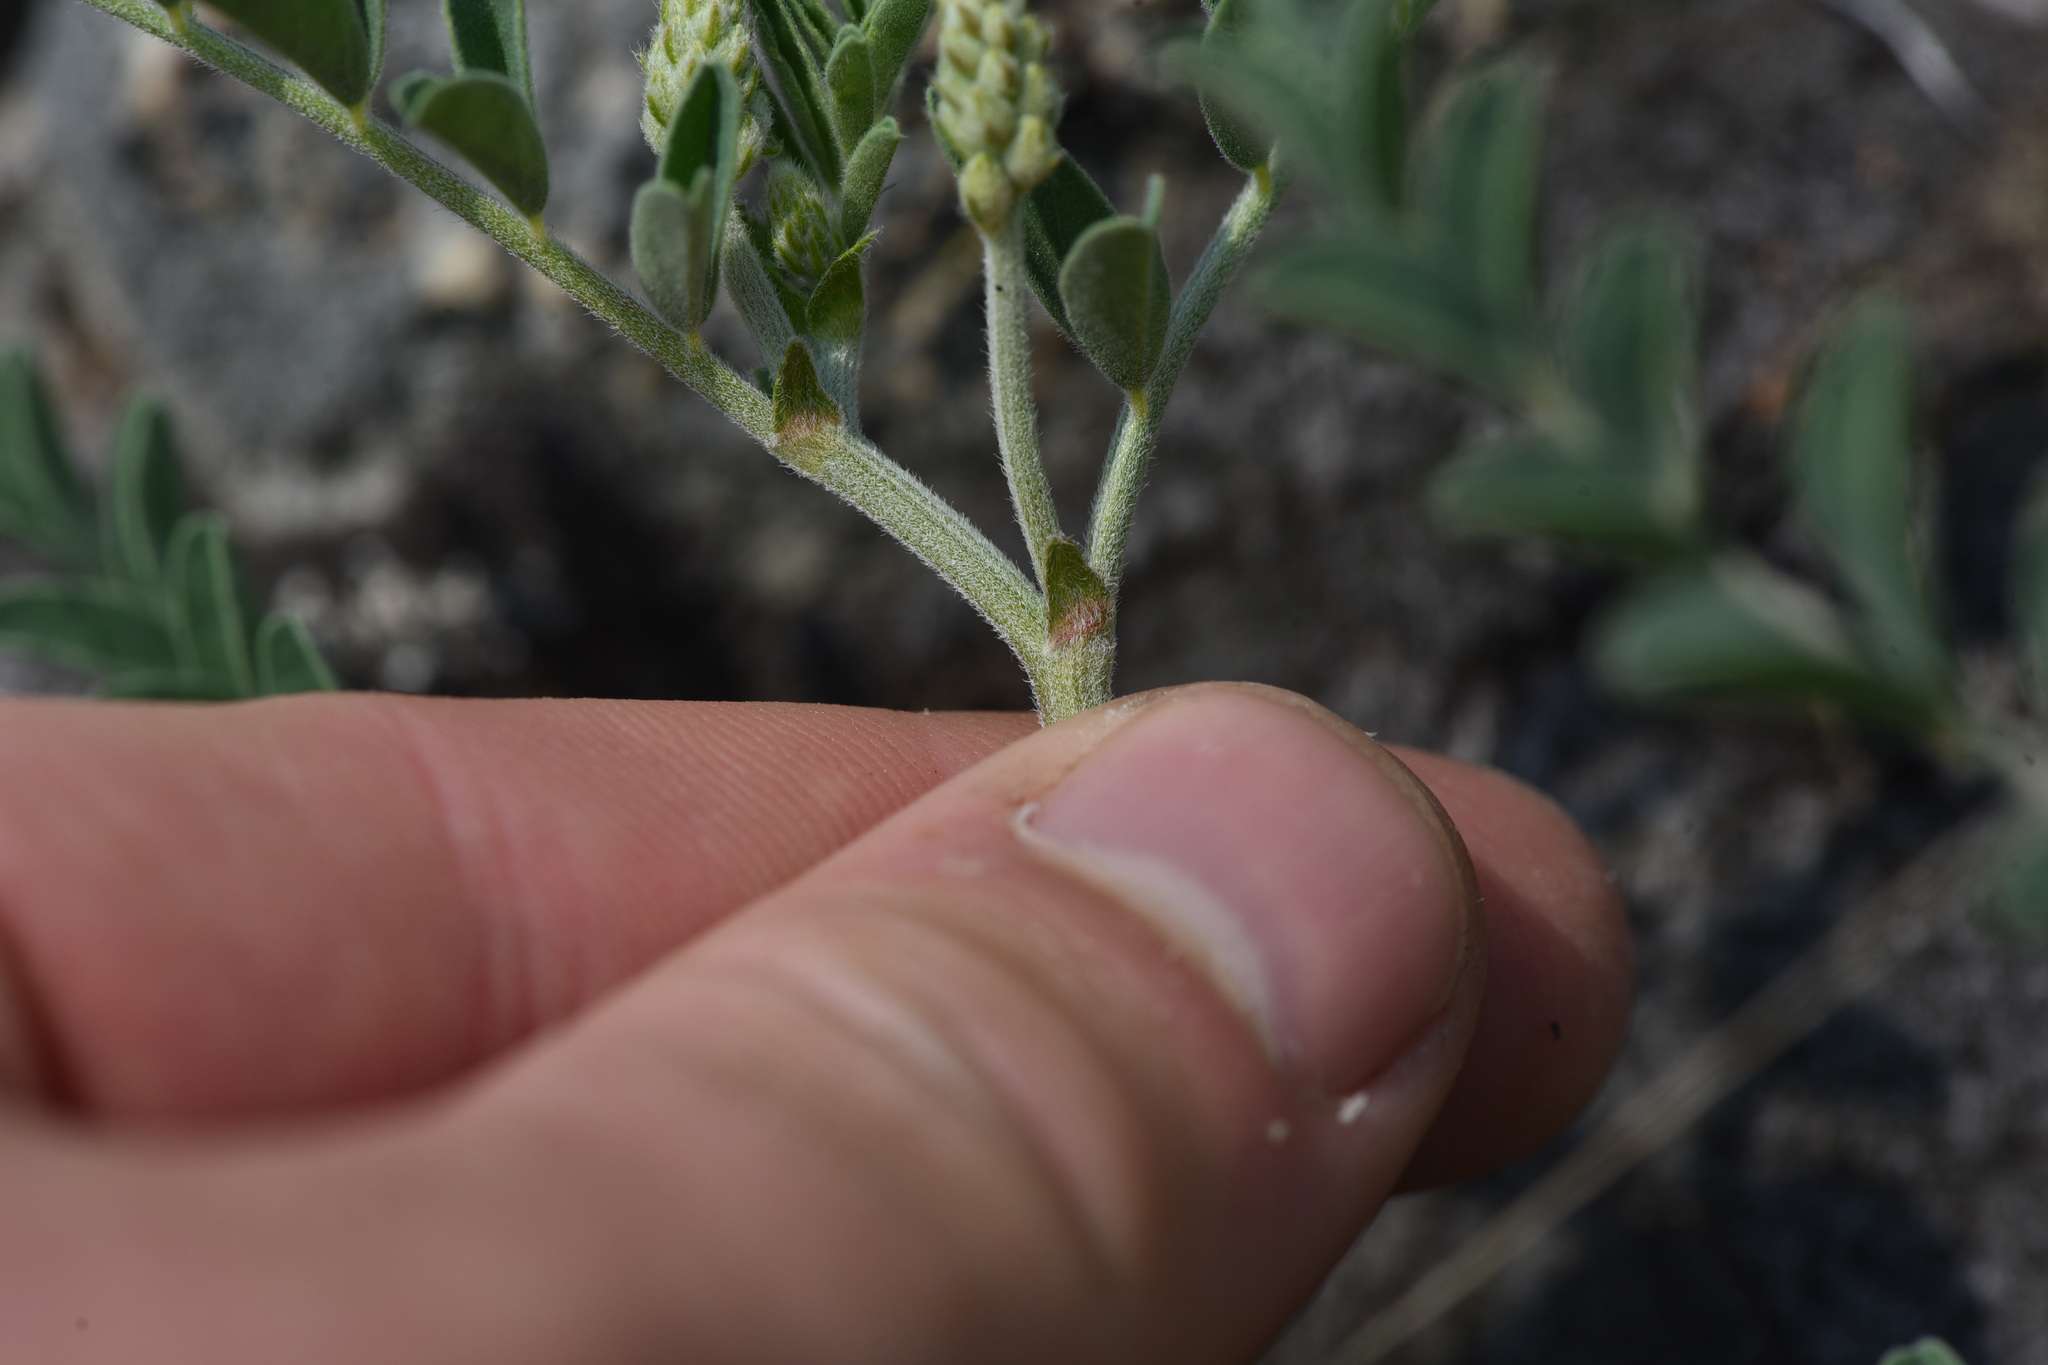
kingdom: Plantae
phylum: Tracheophyta
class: Magnoliopsida
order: Fabales
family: Fabaceae
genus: Astragalus
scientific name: Astragalus collinus
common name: Hill milk-vetch
